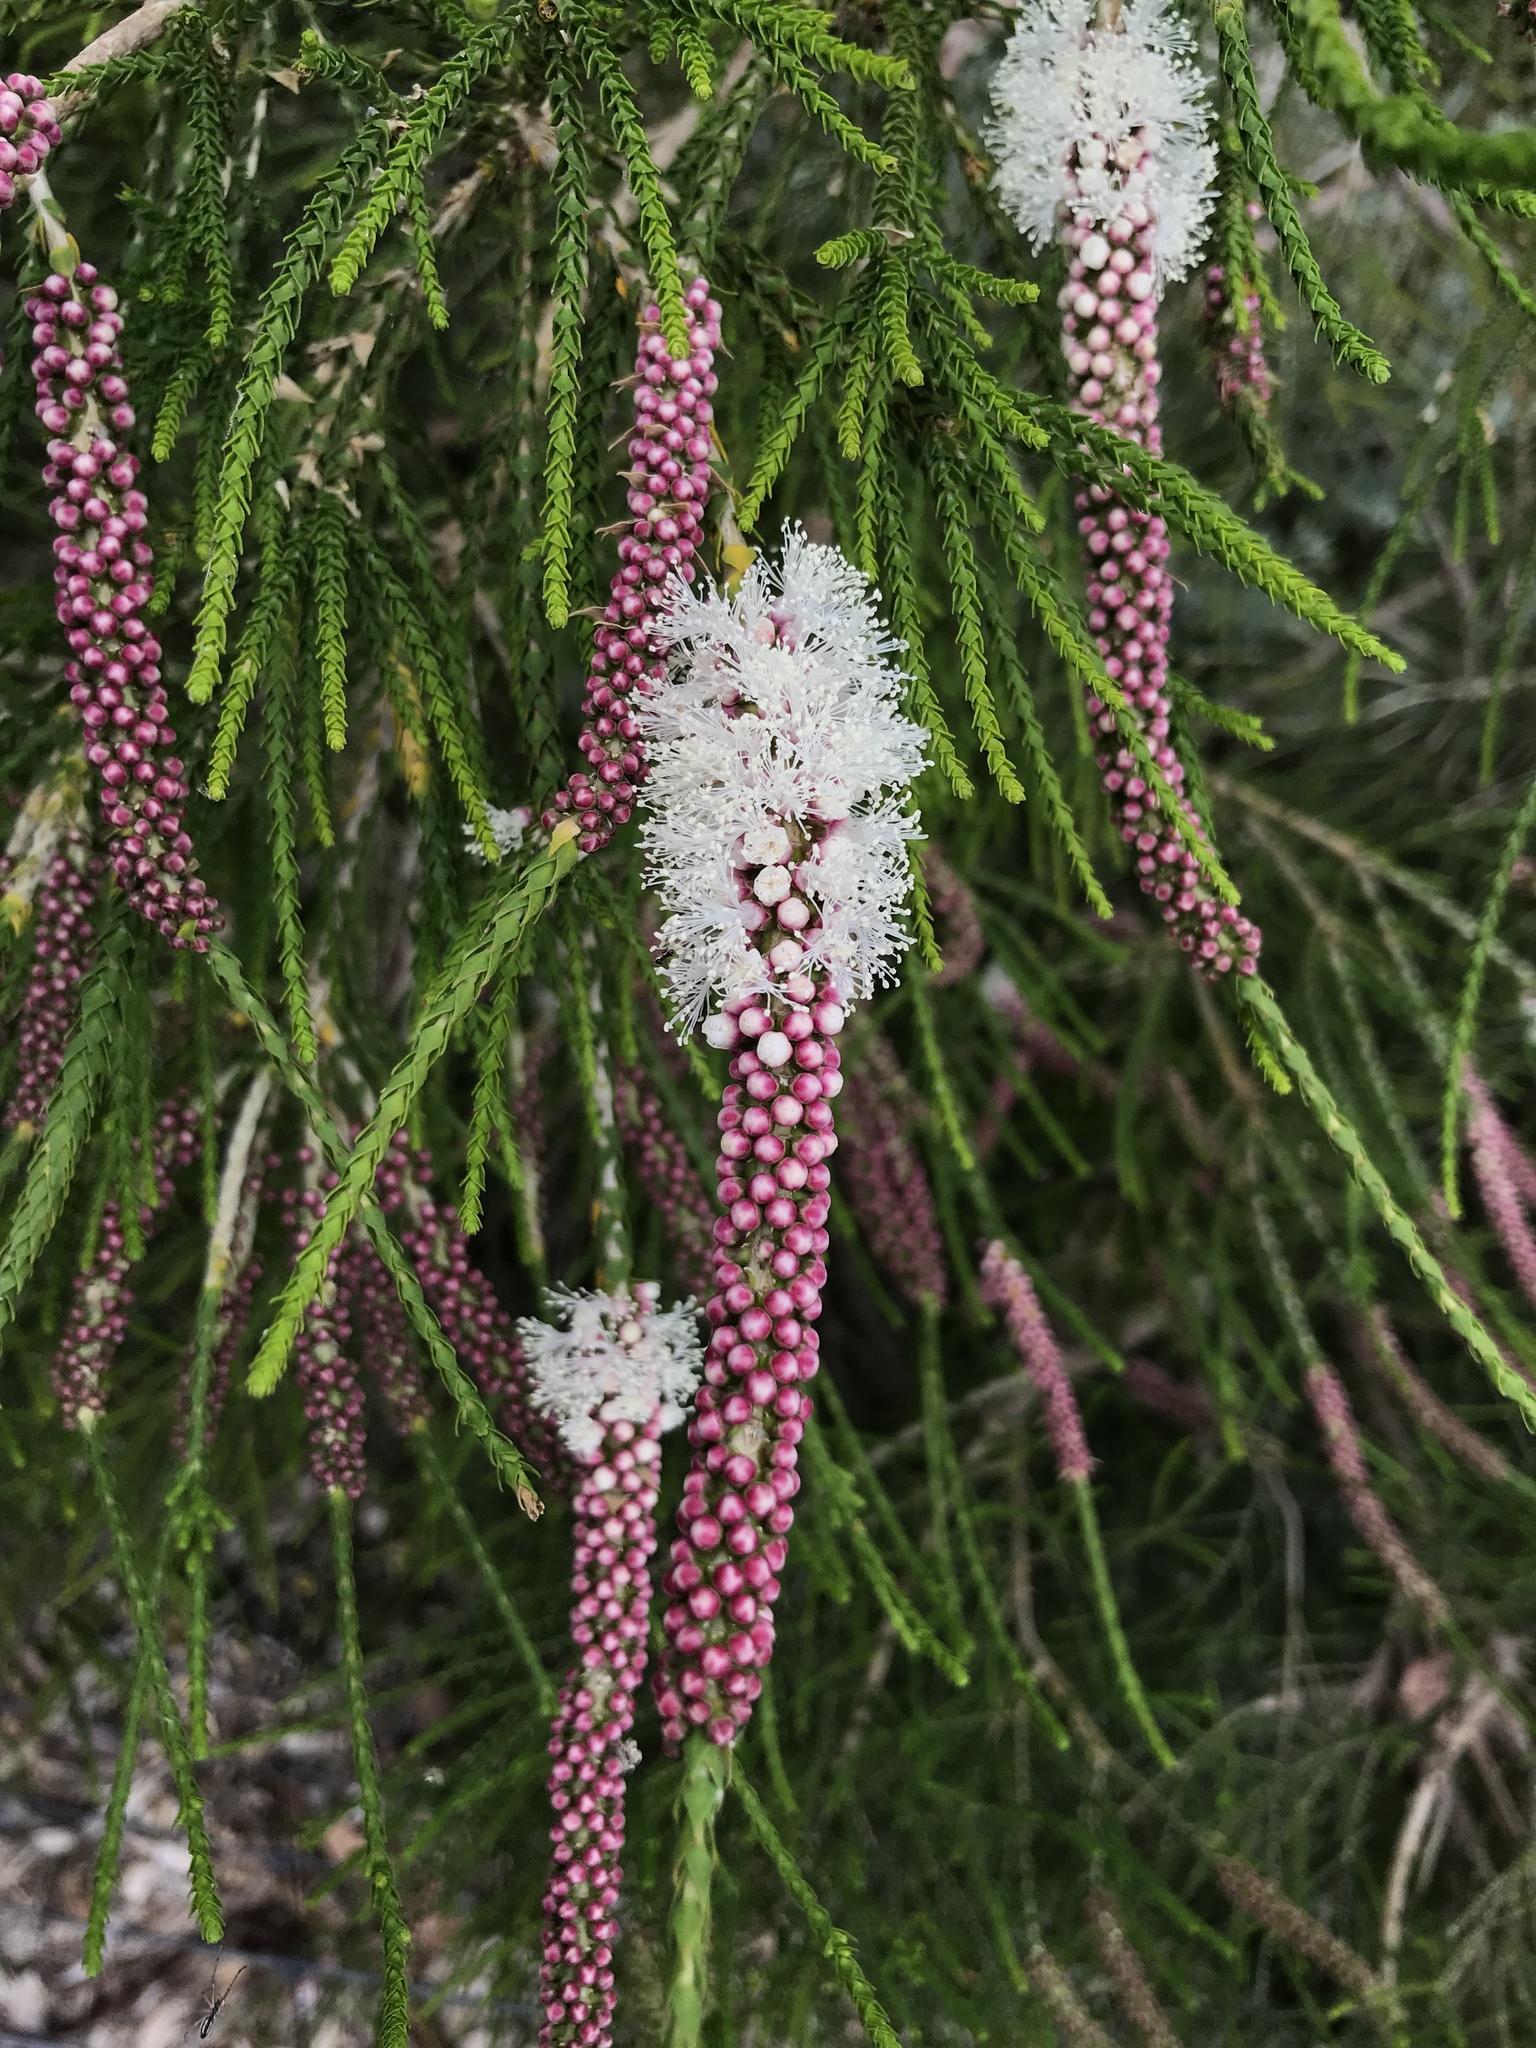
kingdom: Plantae
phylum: Tracheophyta
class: Magnoliopsida
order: Myrtales
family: Myrtaceae
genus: Melaleuca
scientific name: Melaleuca huegelii
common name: Chenille honey myrtle
